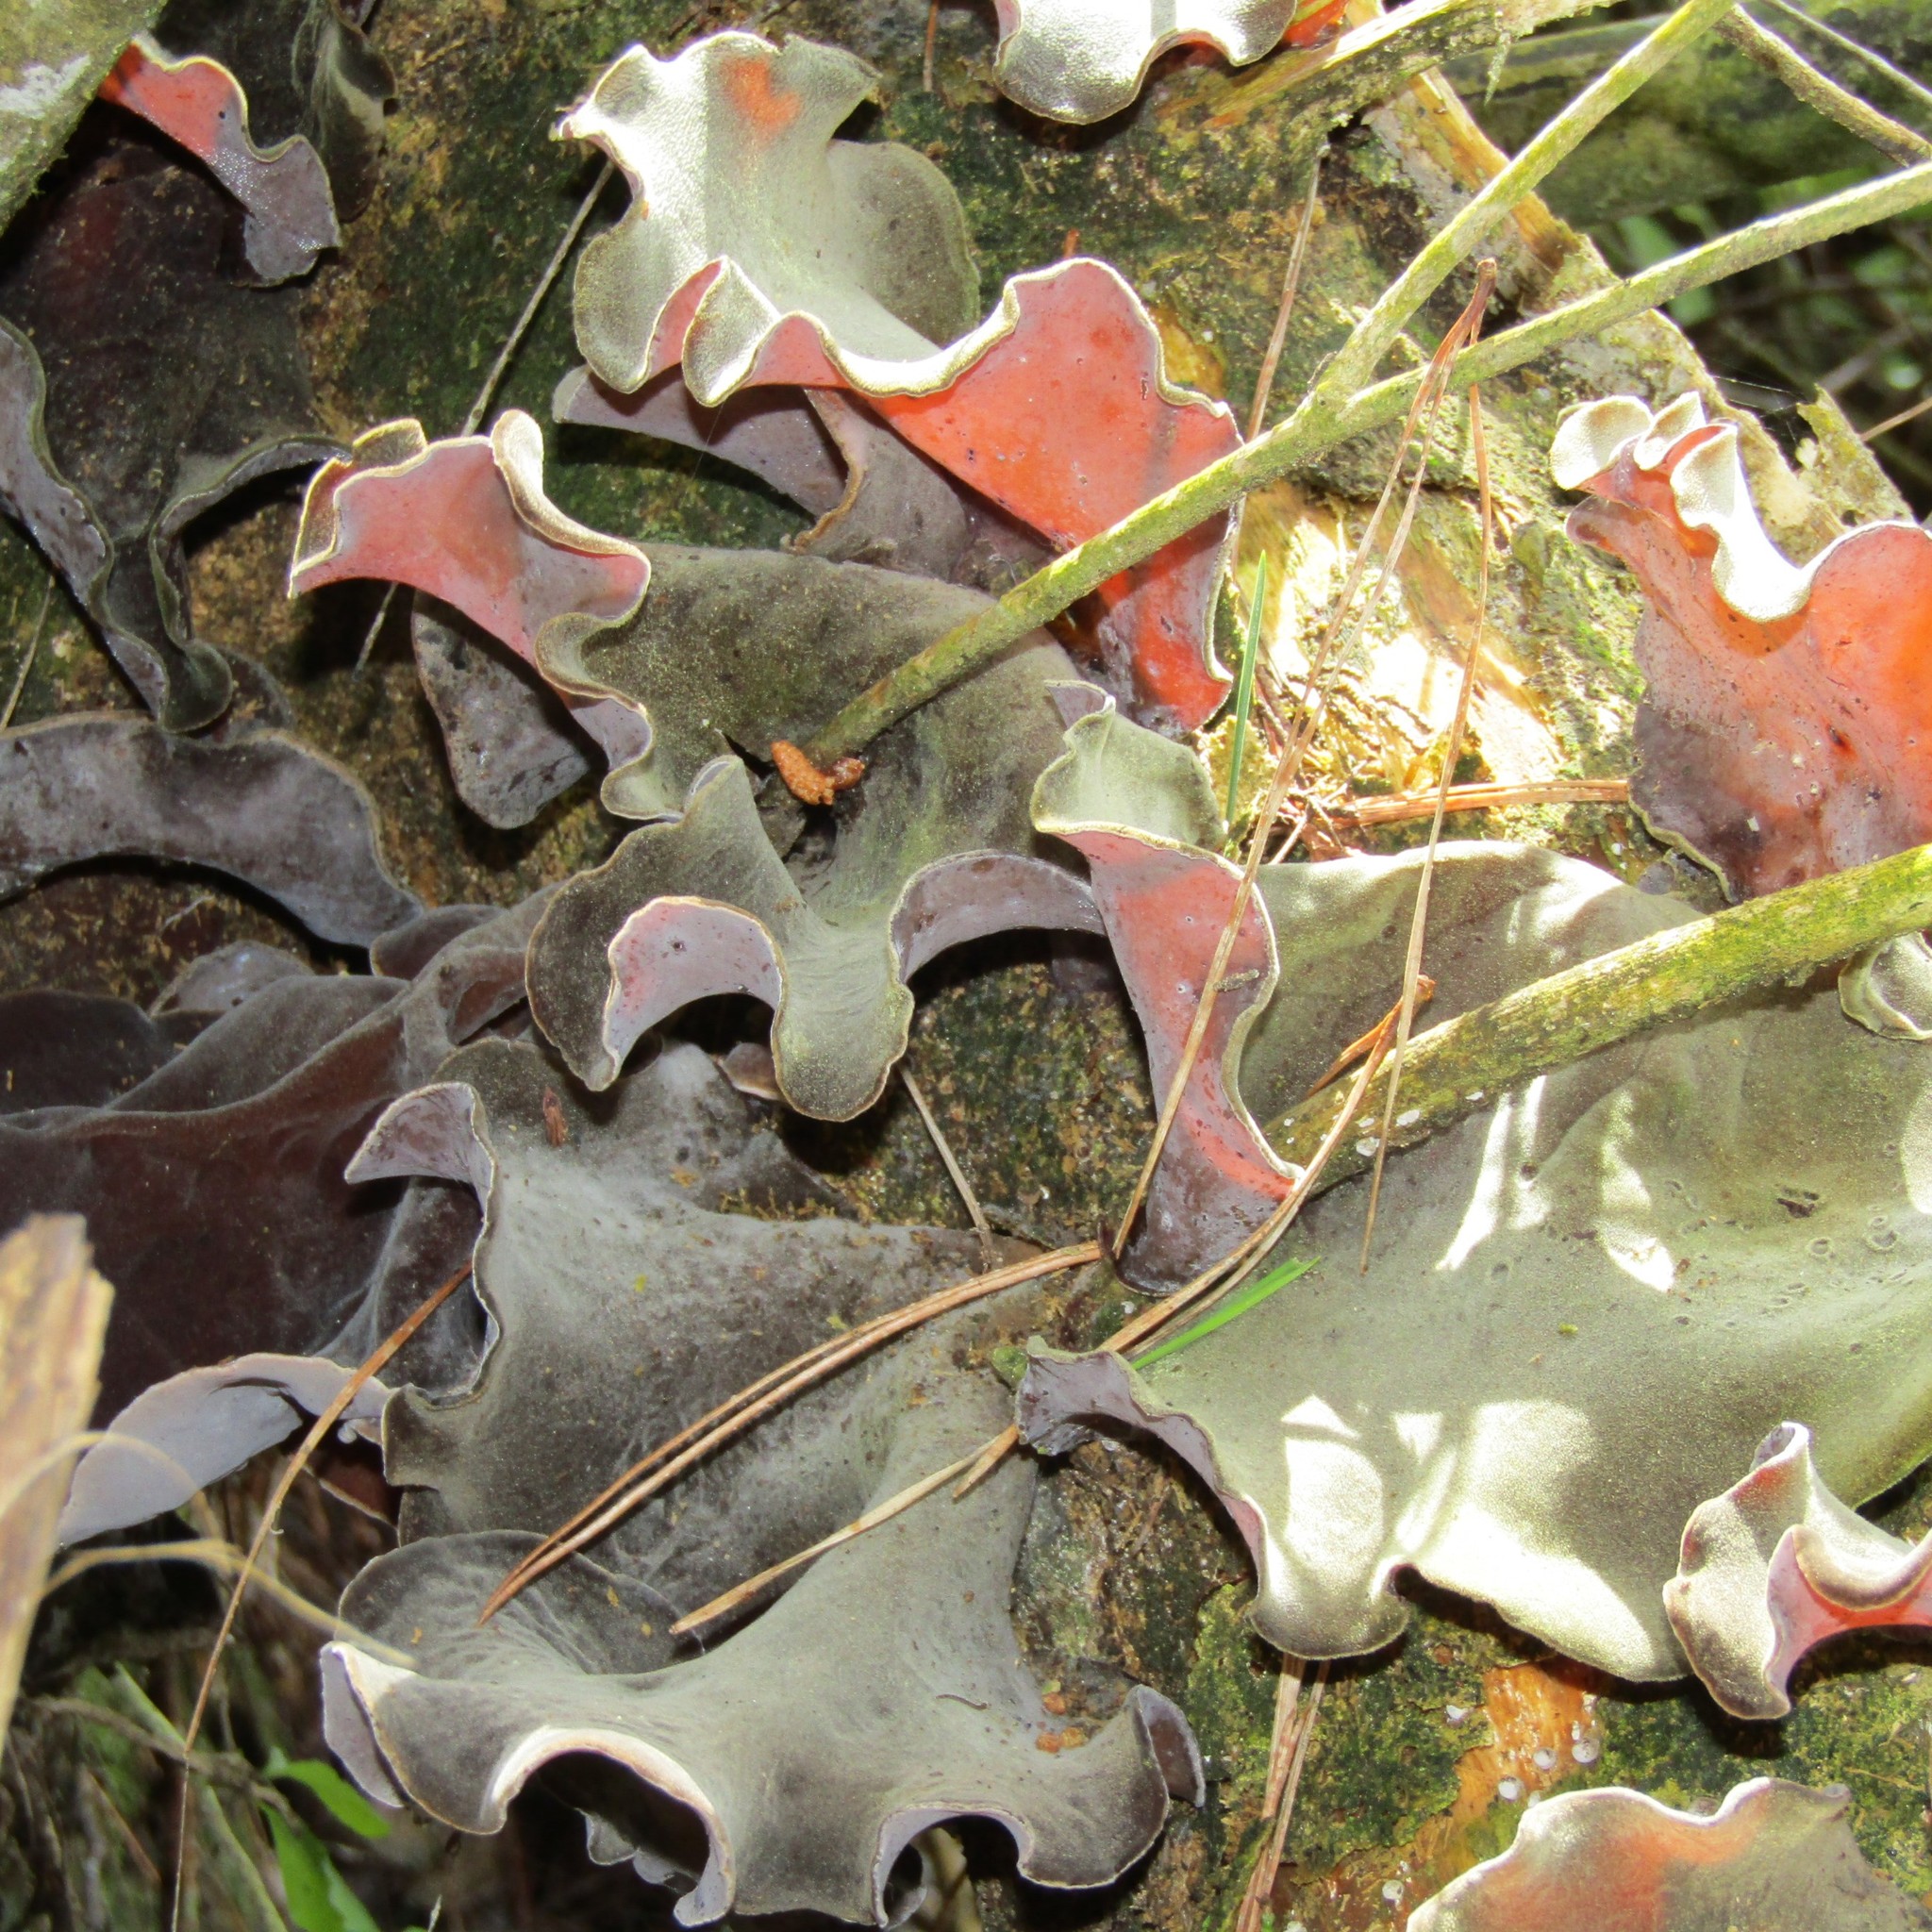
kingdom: Fungi
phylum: Basidiomycota
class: Agaricomycetes
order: Auriculariales
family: Auriculariaceae
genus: Auricularia
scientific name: Auricularia cornea
